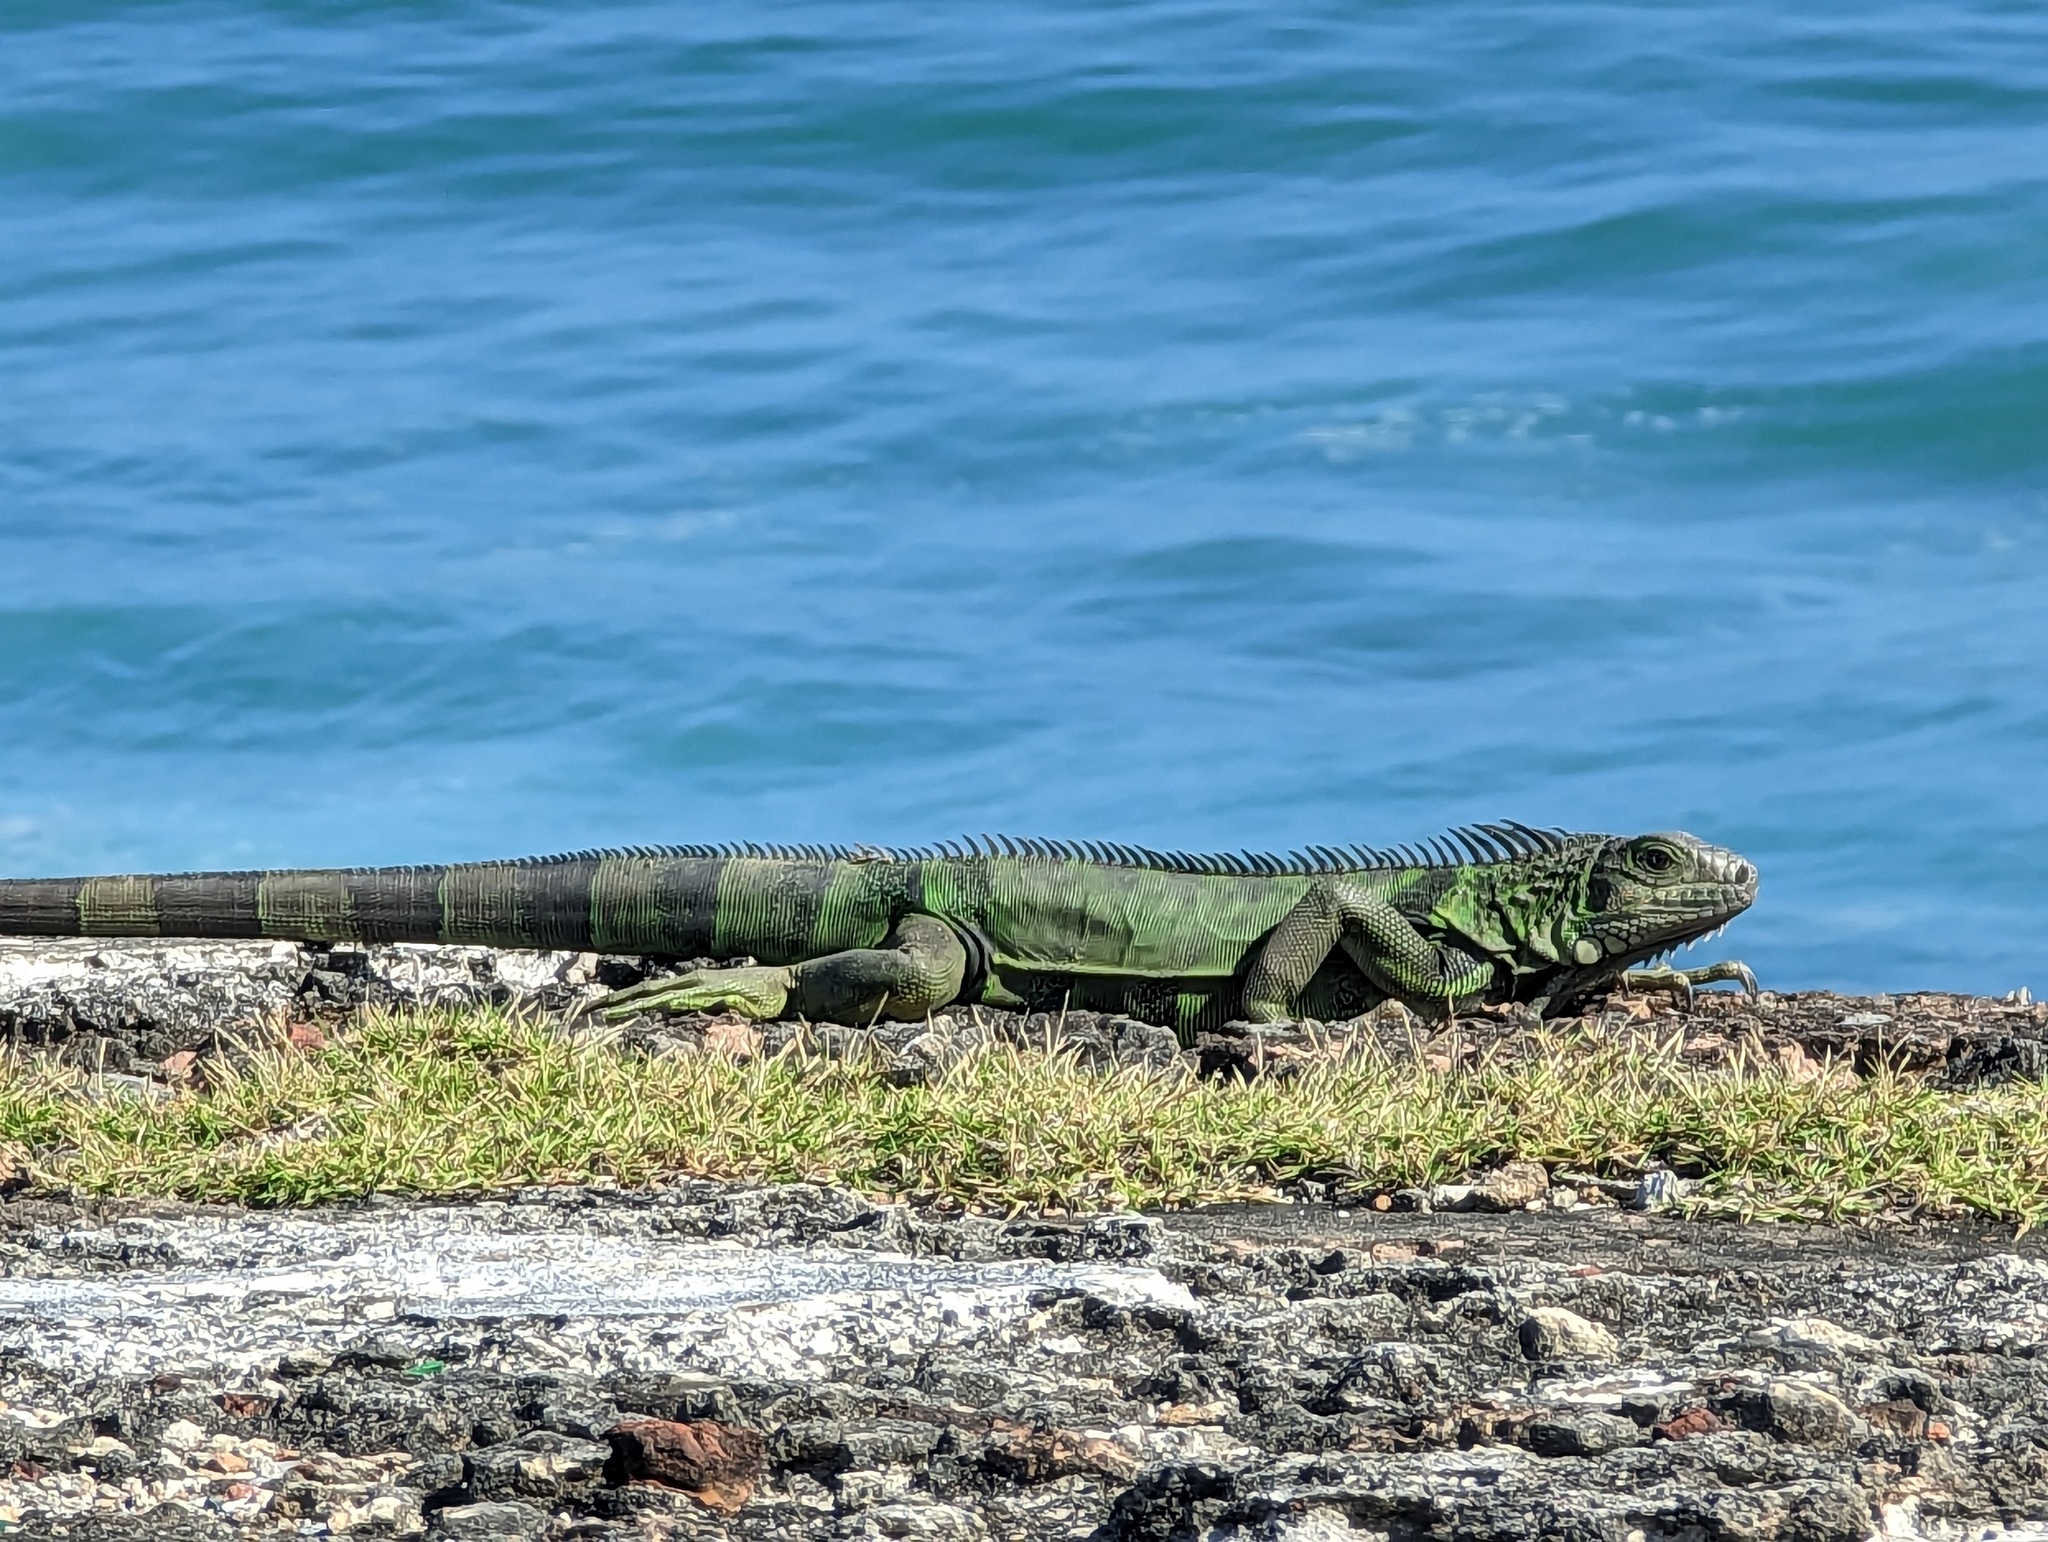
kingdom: Animalia
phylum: Chordata
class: Squamata
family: Iguanidae
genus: Iguana
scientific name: Iguana iguana
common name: Green iguana
